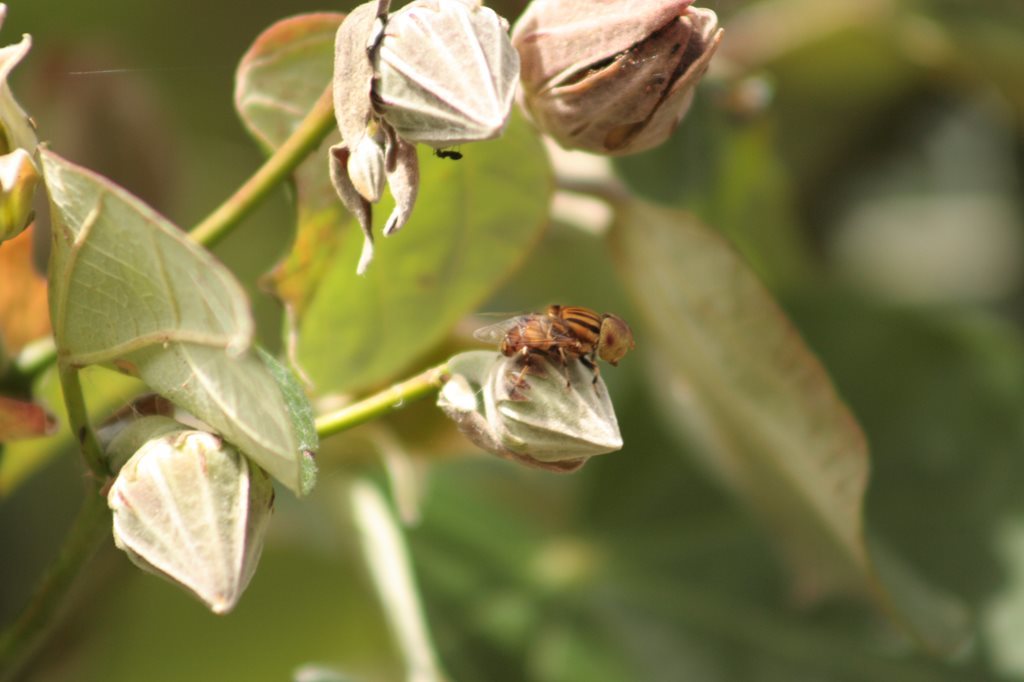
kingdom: Animalia
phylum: Arthropoda
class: Insecta
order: Diptera
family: Syrphidae
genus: Eristalinus
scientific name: Eristalinus punctulatus
